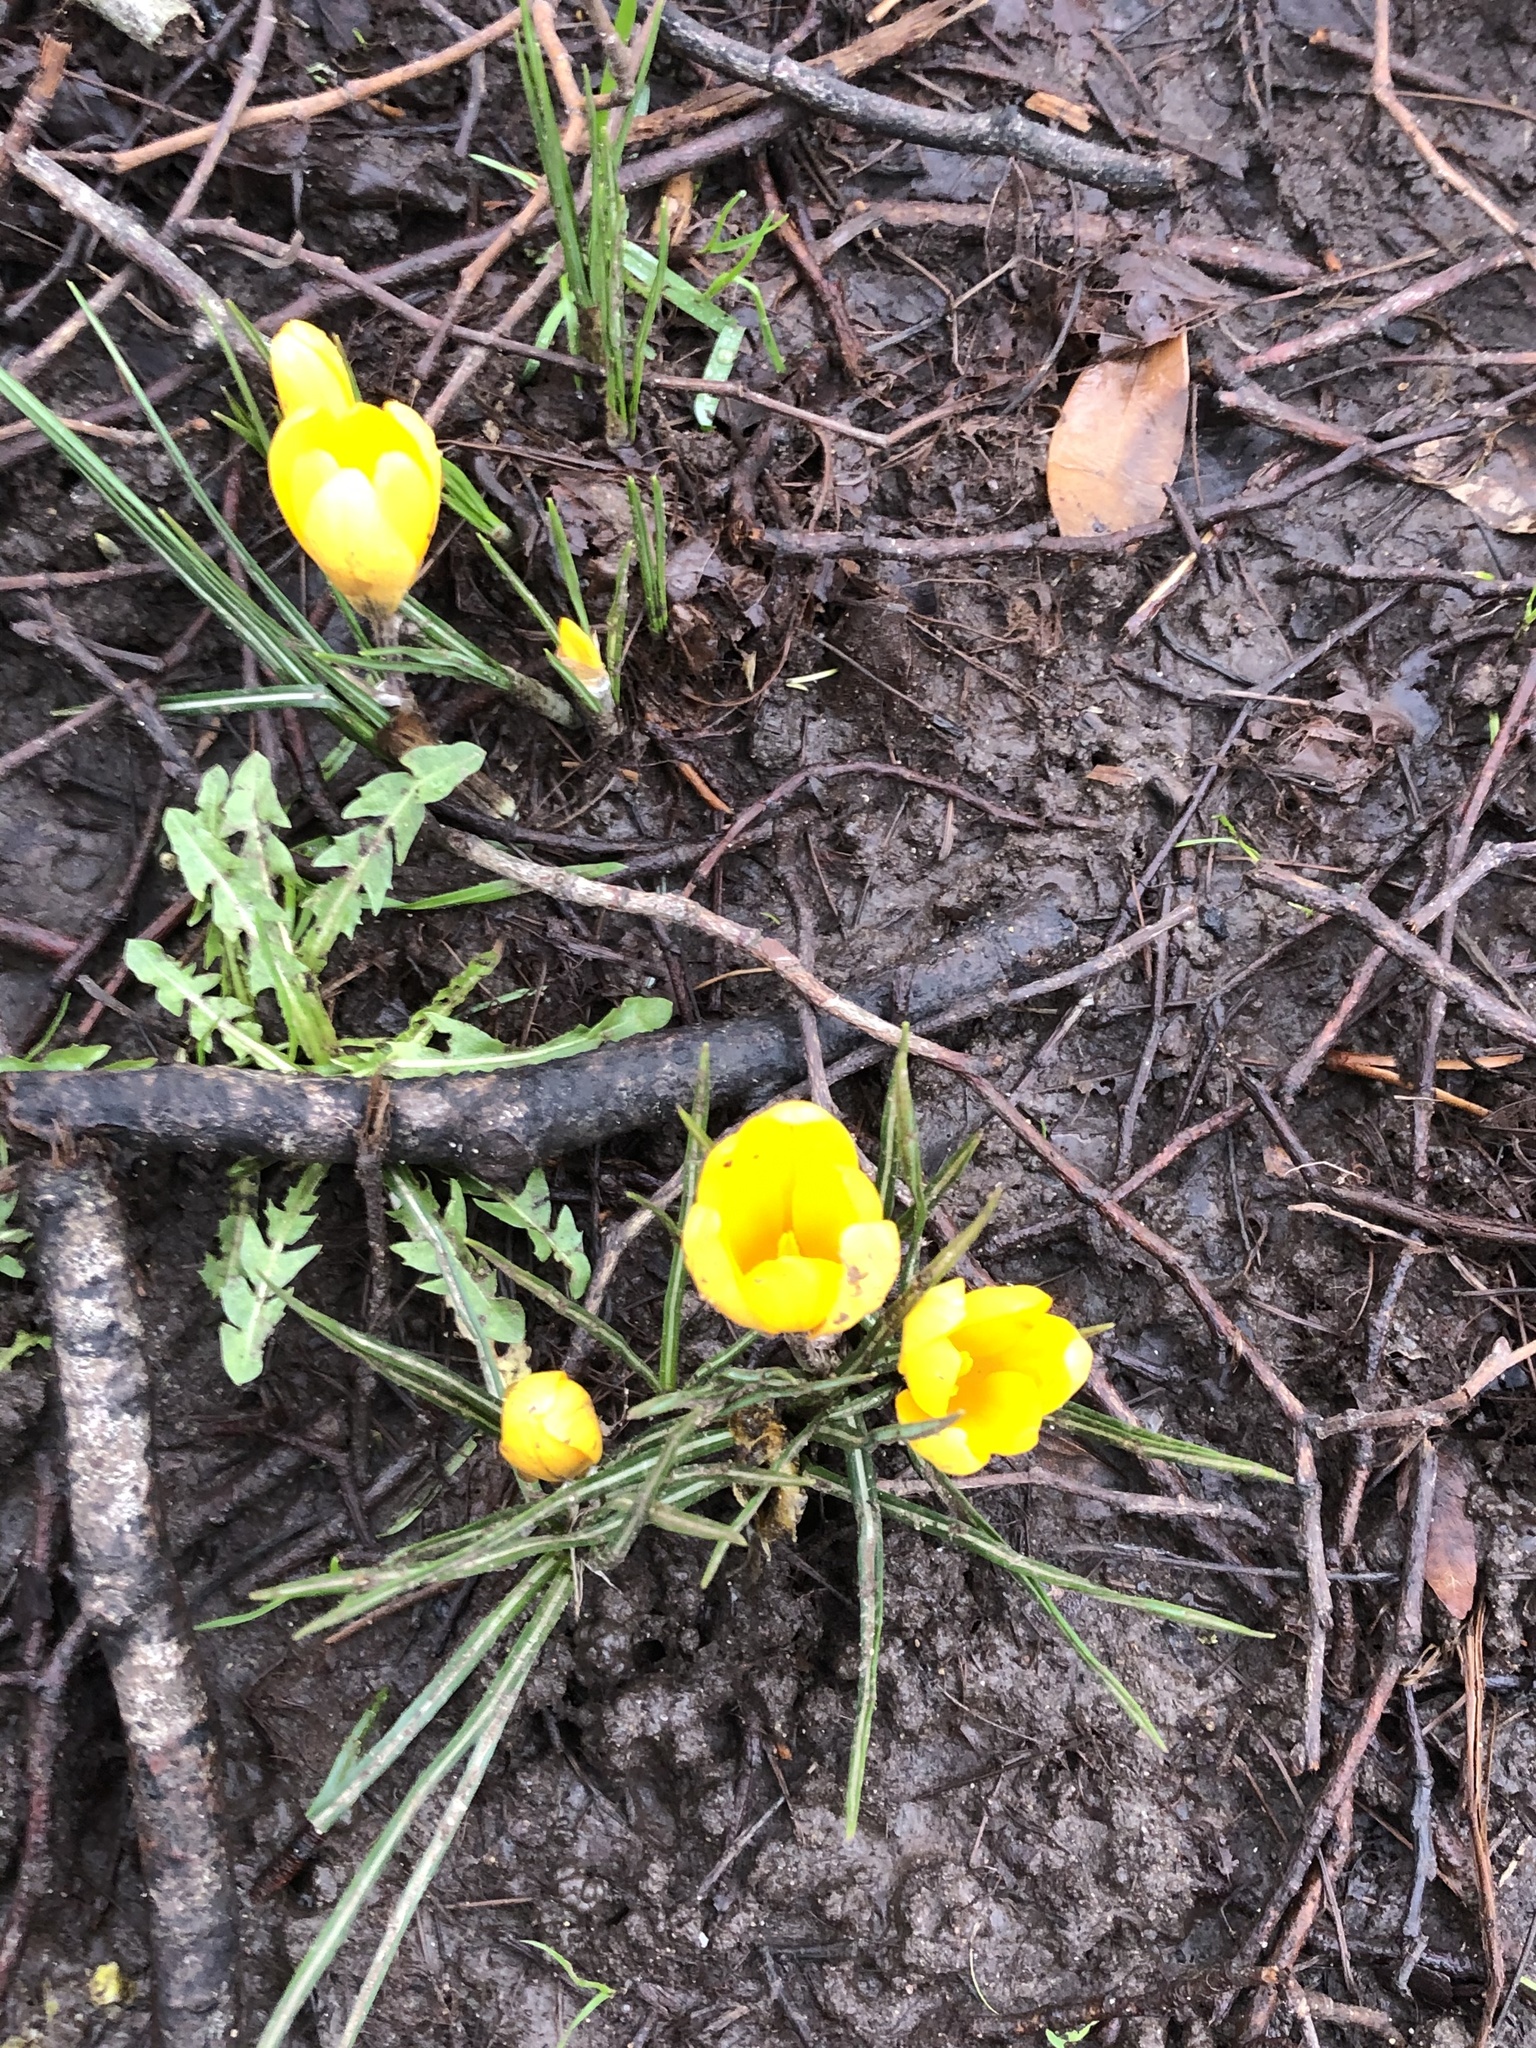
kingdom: Plantae
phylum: Tracheophyta
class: Liliopsida
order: Asparagales
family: Iridaceae
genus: Crocus
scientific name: Crocus luteus
